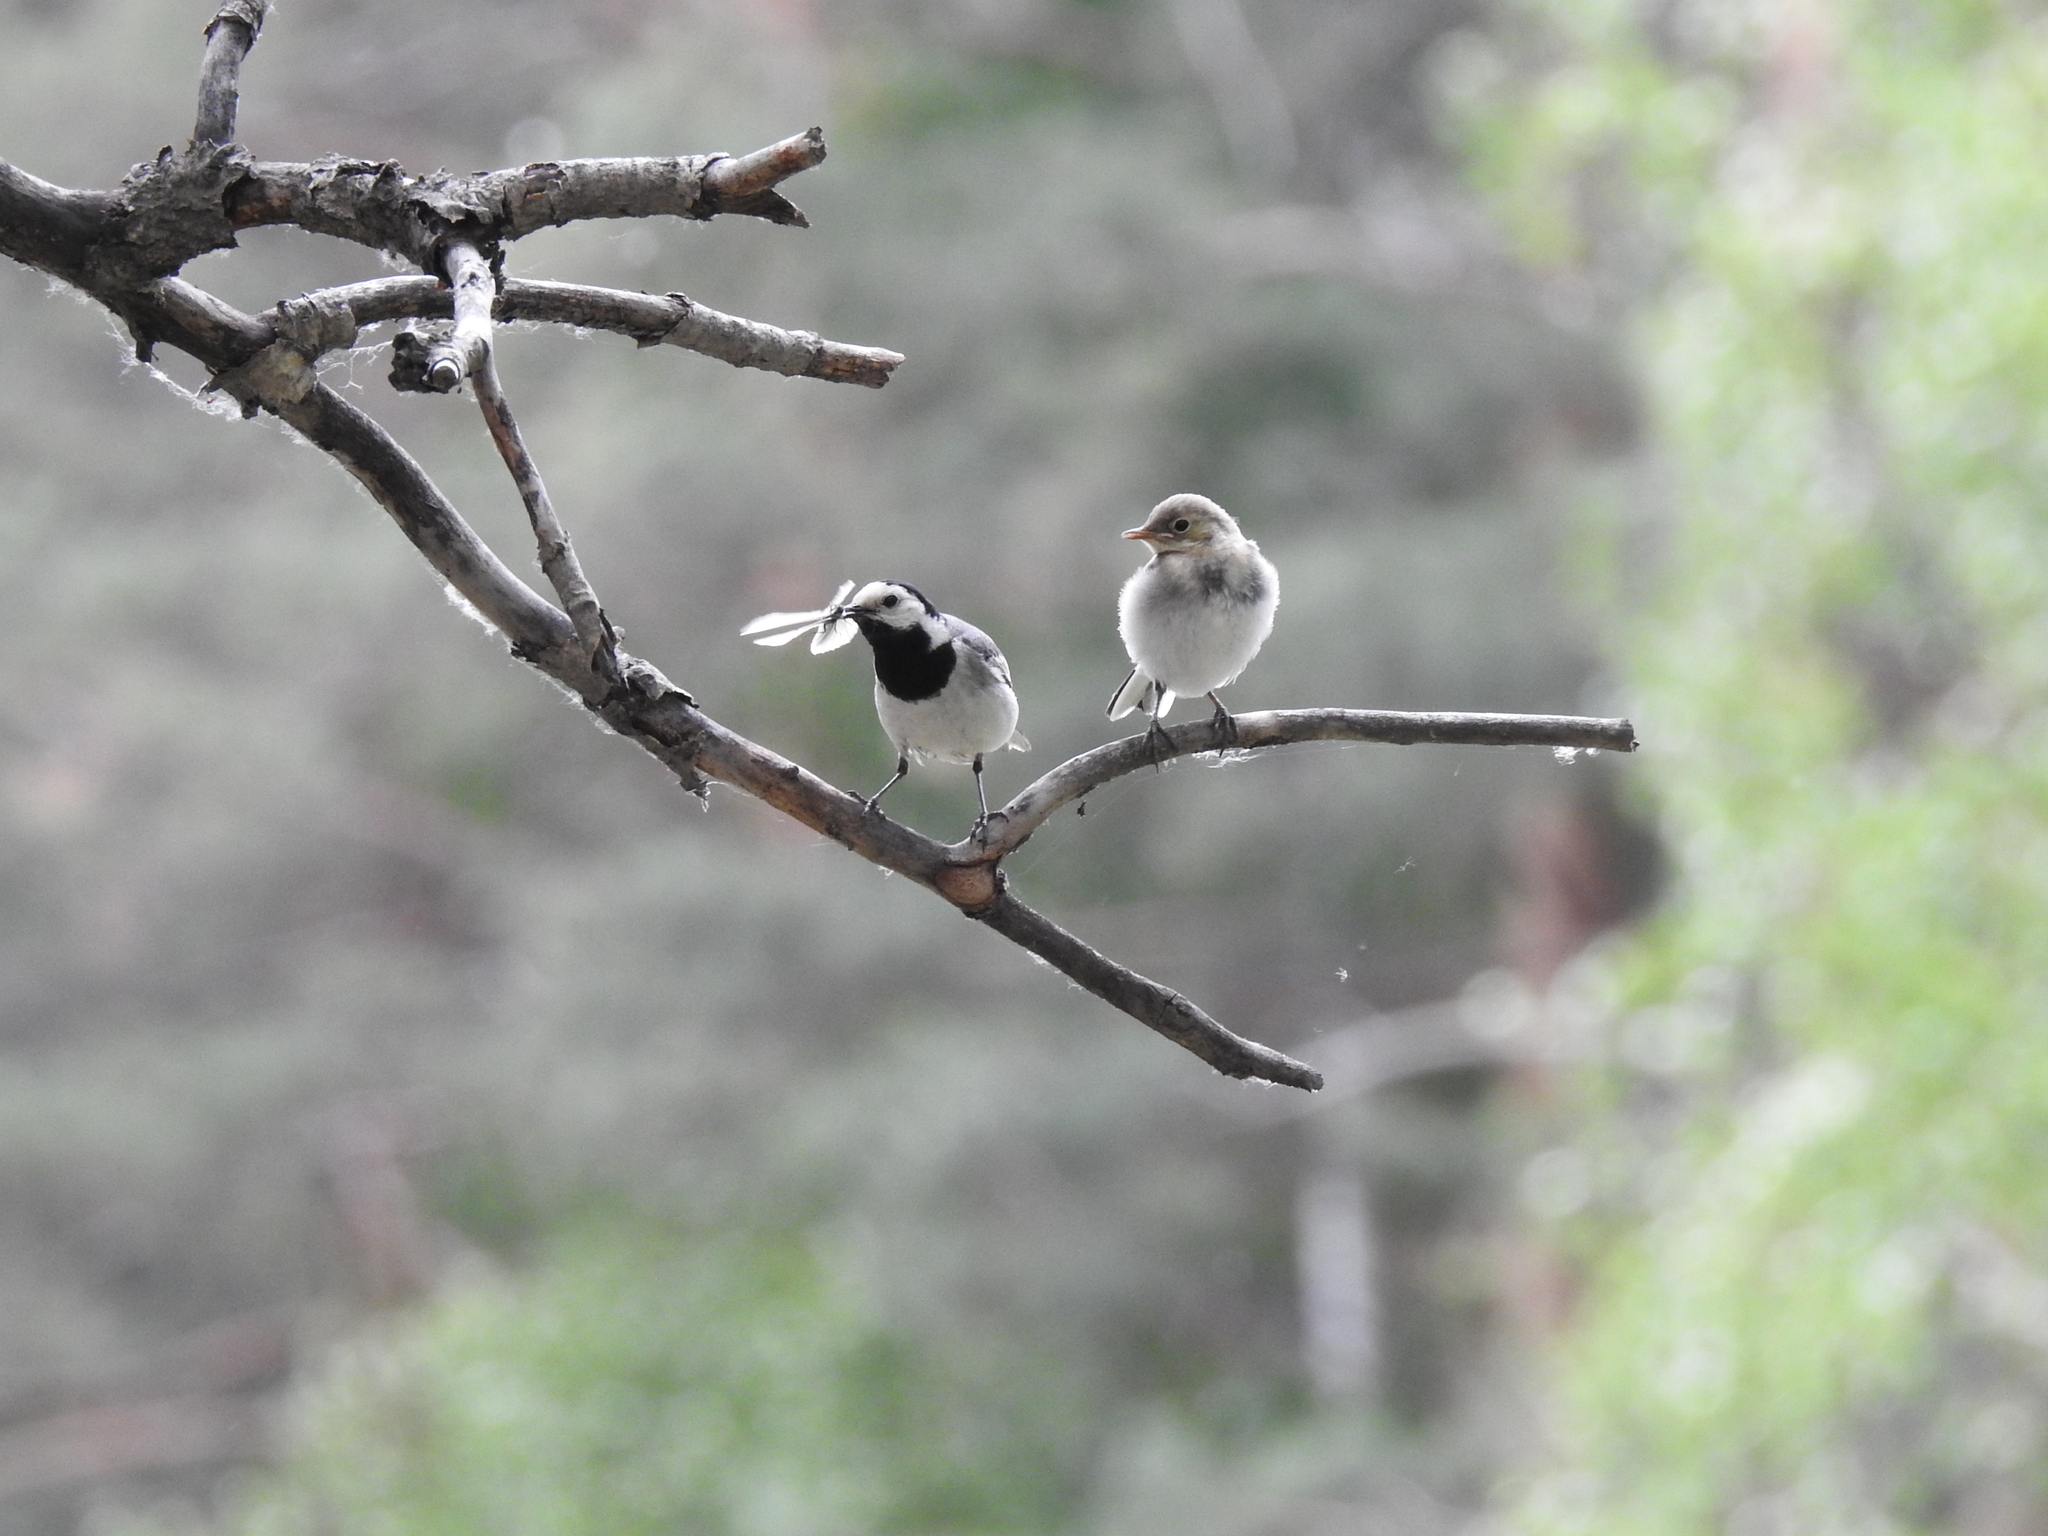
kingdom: Animalia
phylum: Chordata
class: Aves
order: Passeriformes
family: Motacillidae
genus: Motacilla
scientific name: Motacilla alba
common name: White wagtail
